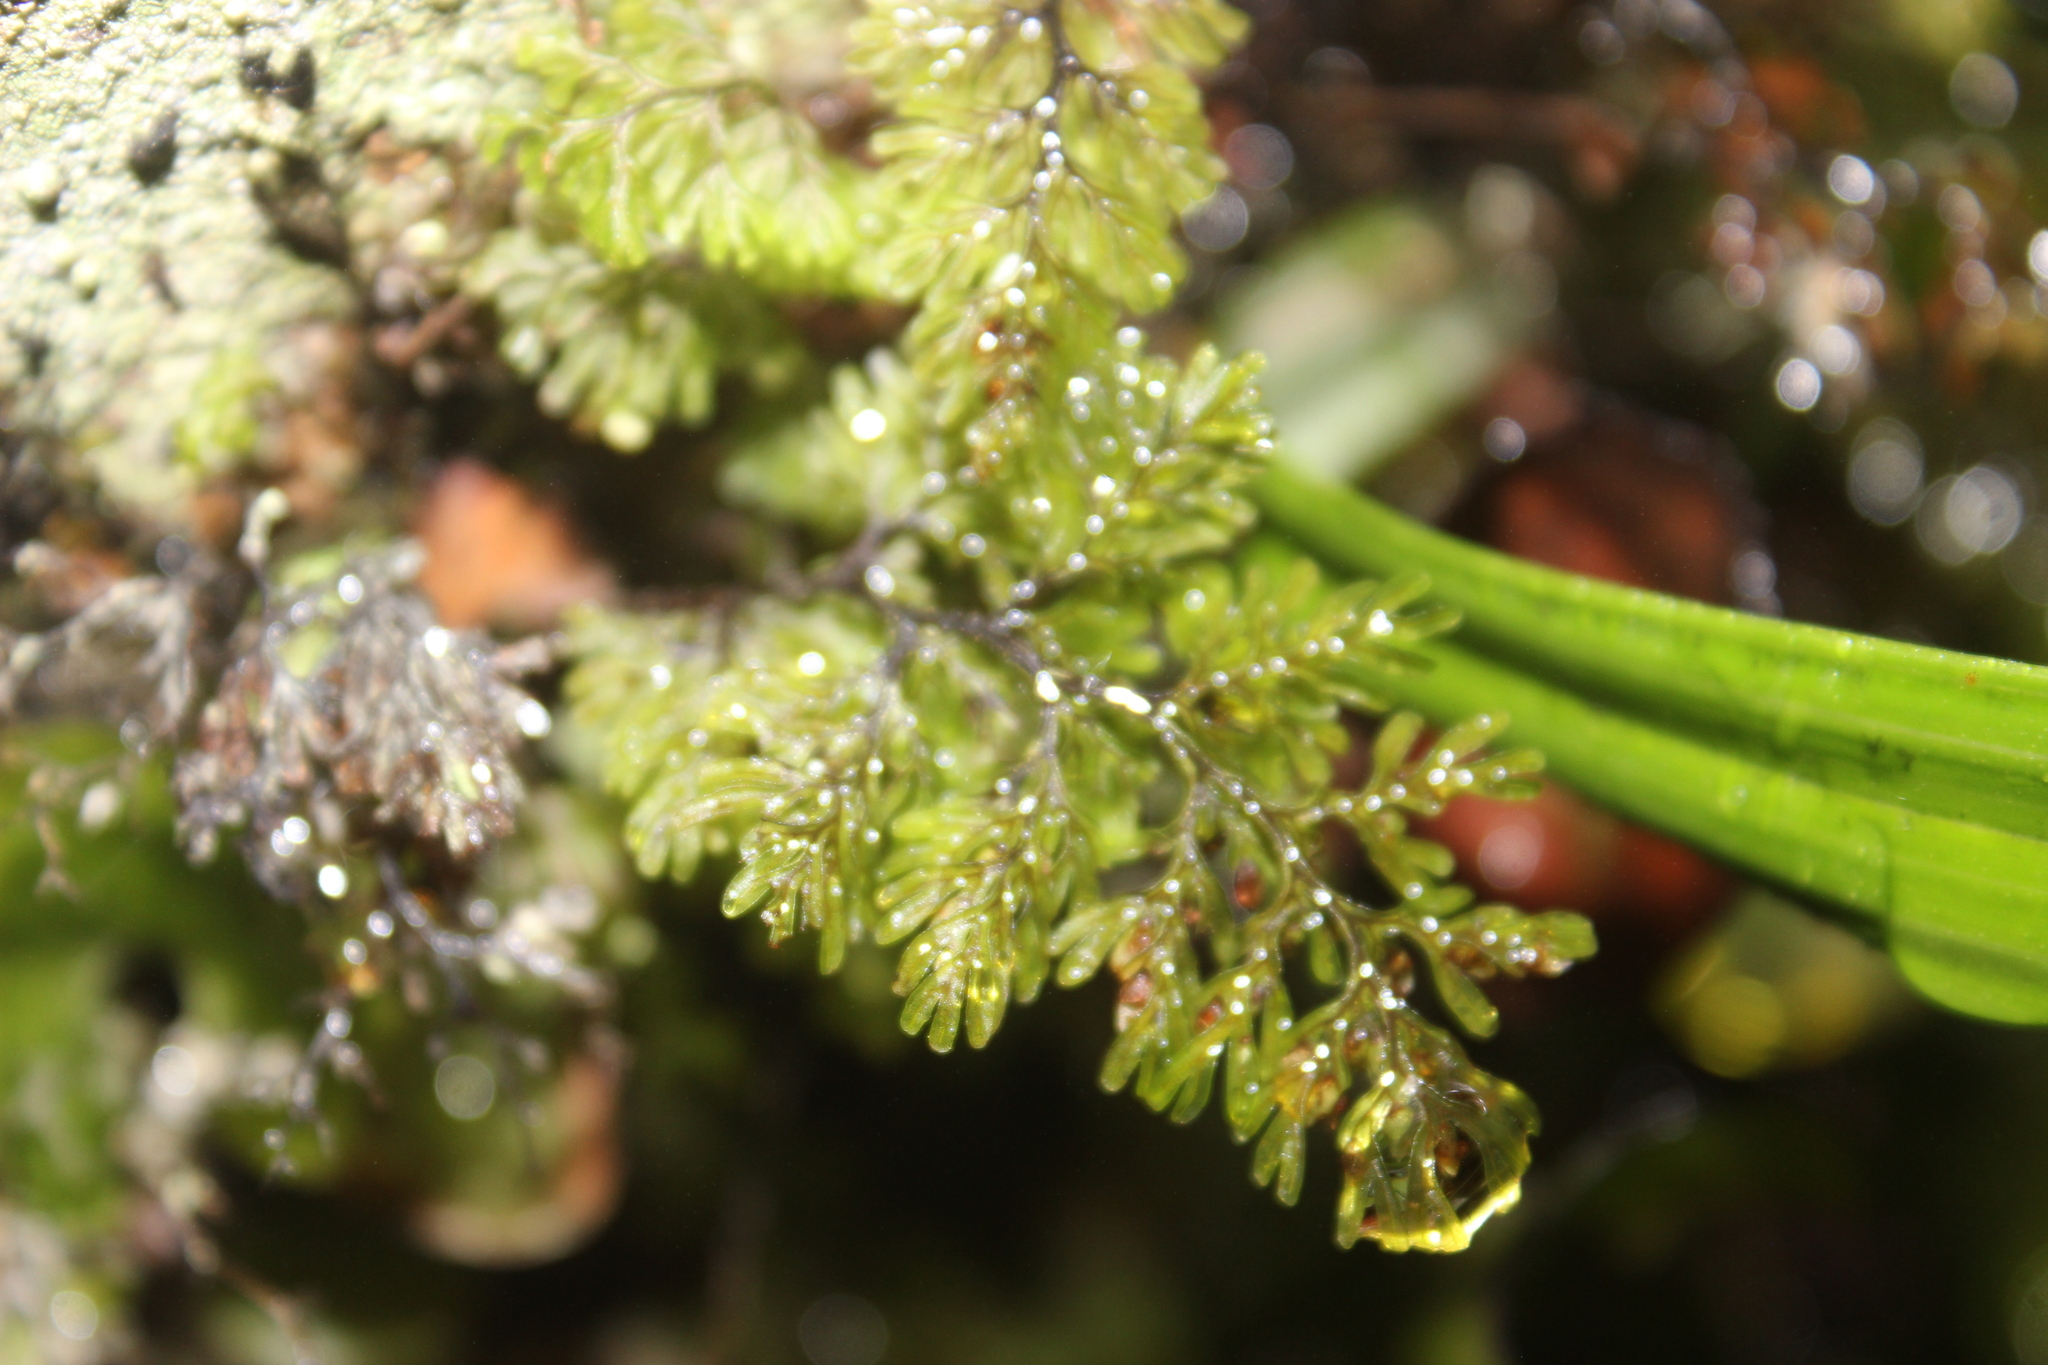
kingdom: Plantae
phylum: Tracheophyta
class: Polypodiopsida
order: Hymenophyllales
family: Hymenophyllaceae
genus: Hymenophyllum
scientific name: Hymenophyllum sanguinolentum
